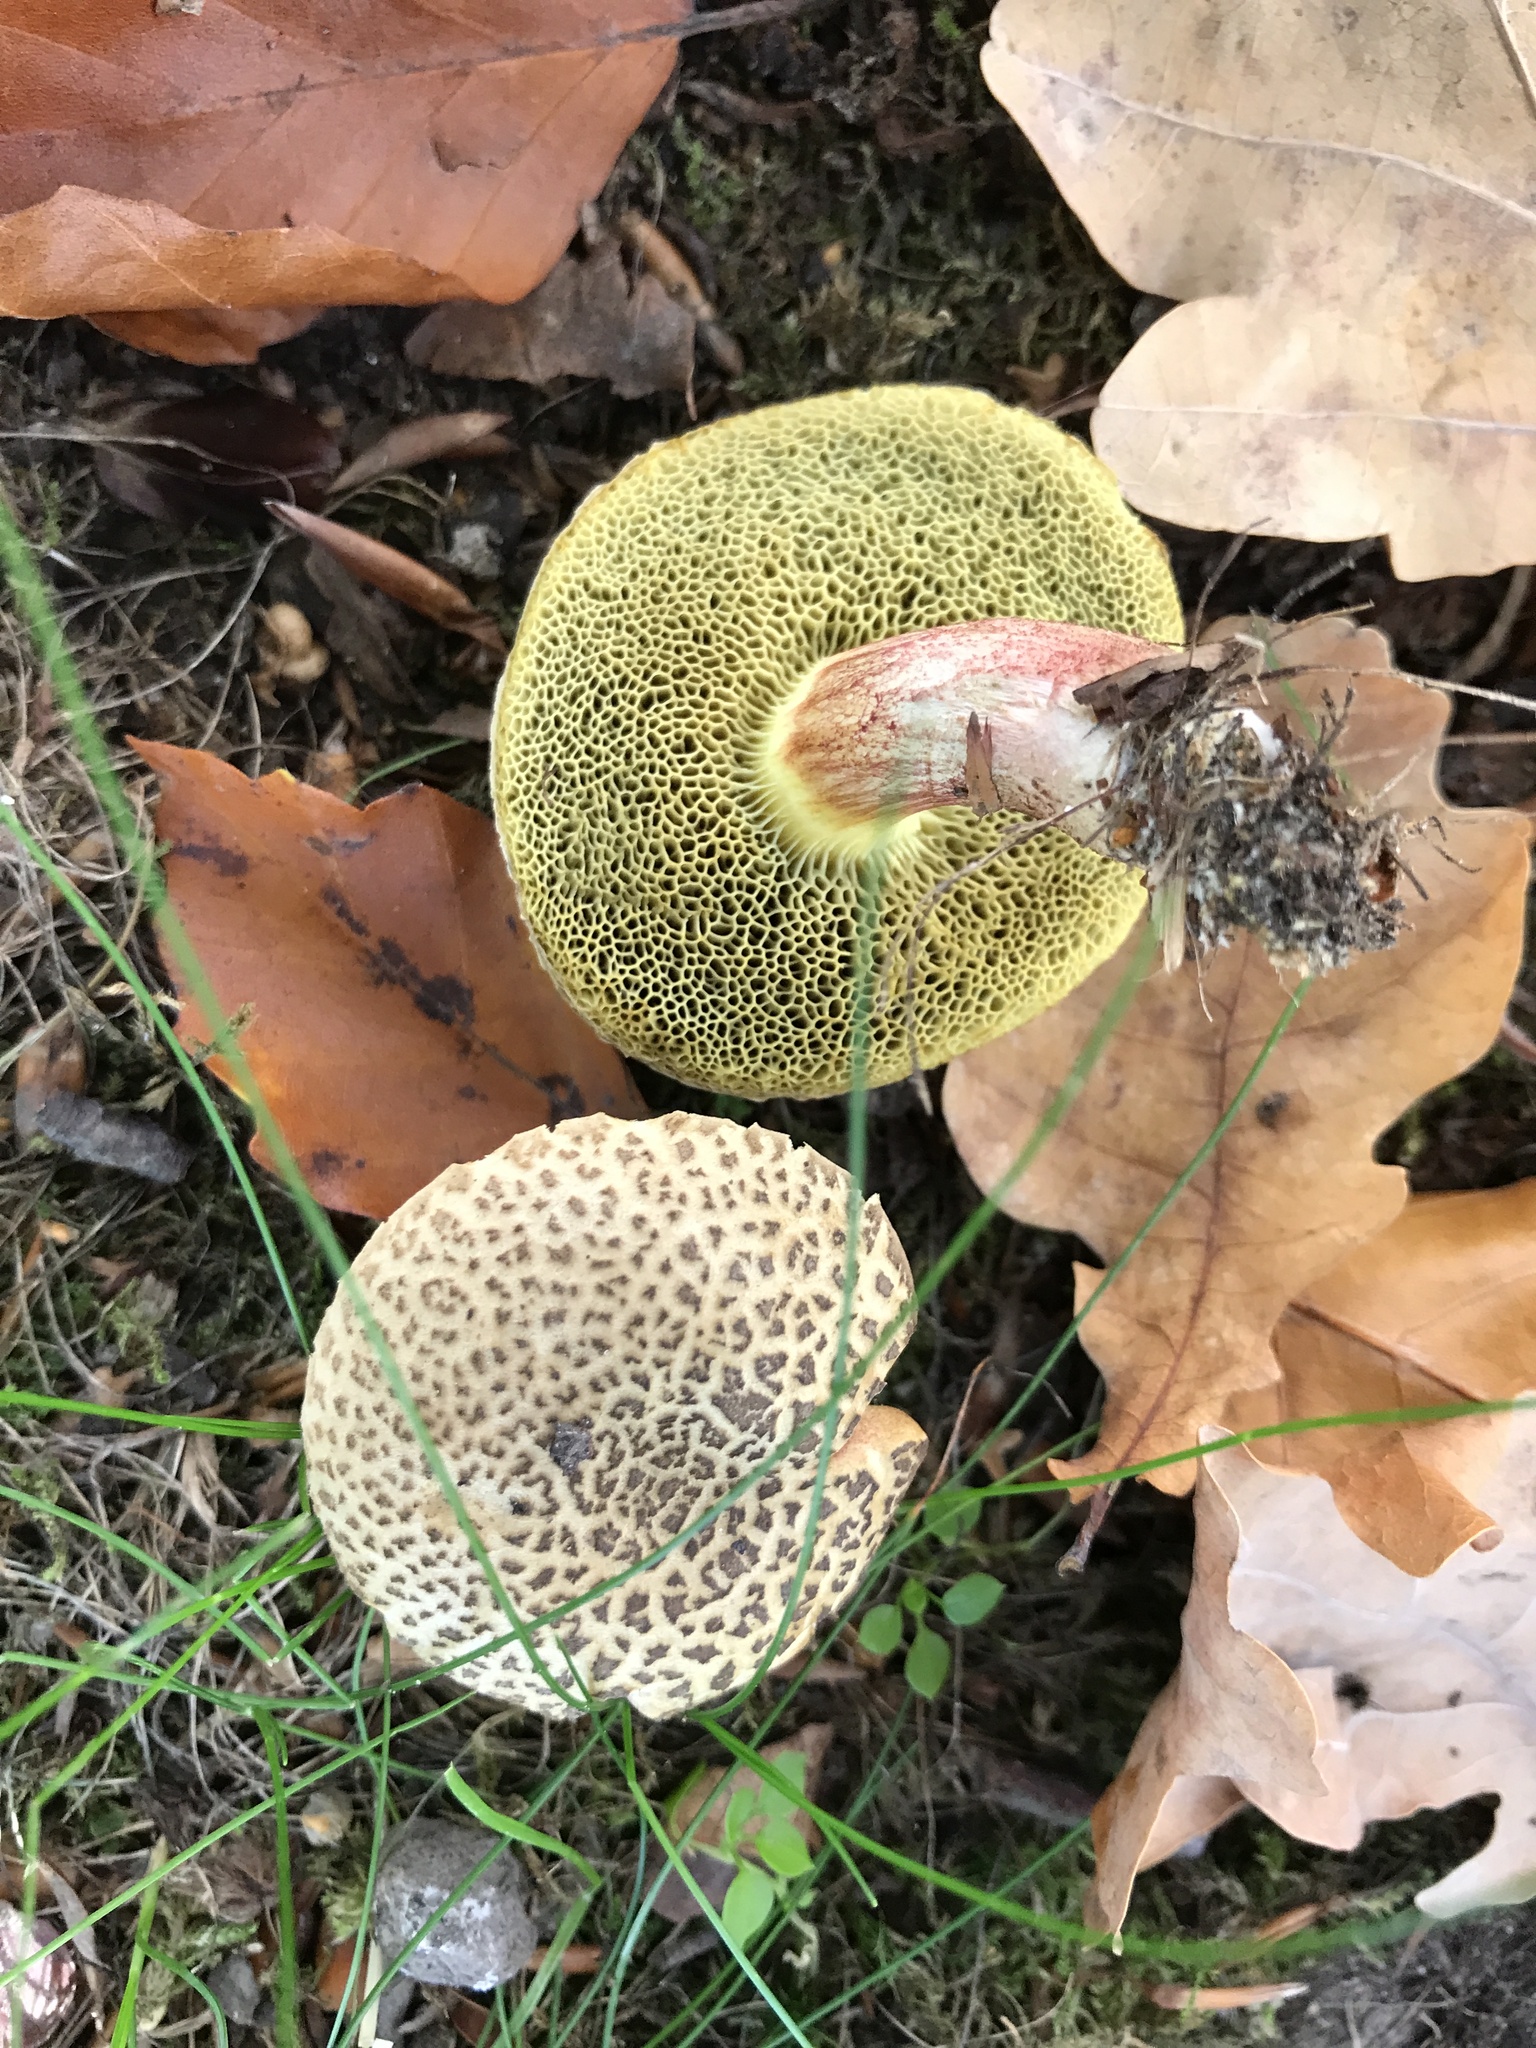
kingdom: Fungi
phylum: Basidiomycota
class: Agaricomycetes
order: Boletales
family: Boletaceae
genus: Xerocomellus
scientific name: Xerocomellus chrysenteron
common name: Red-cracking bolete
